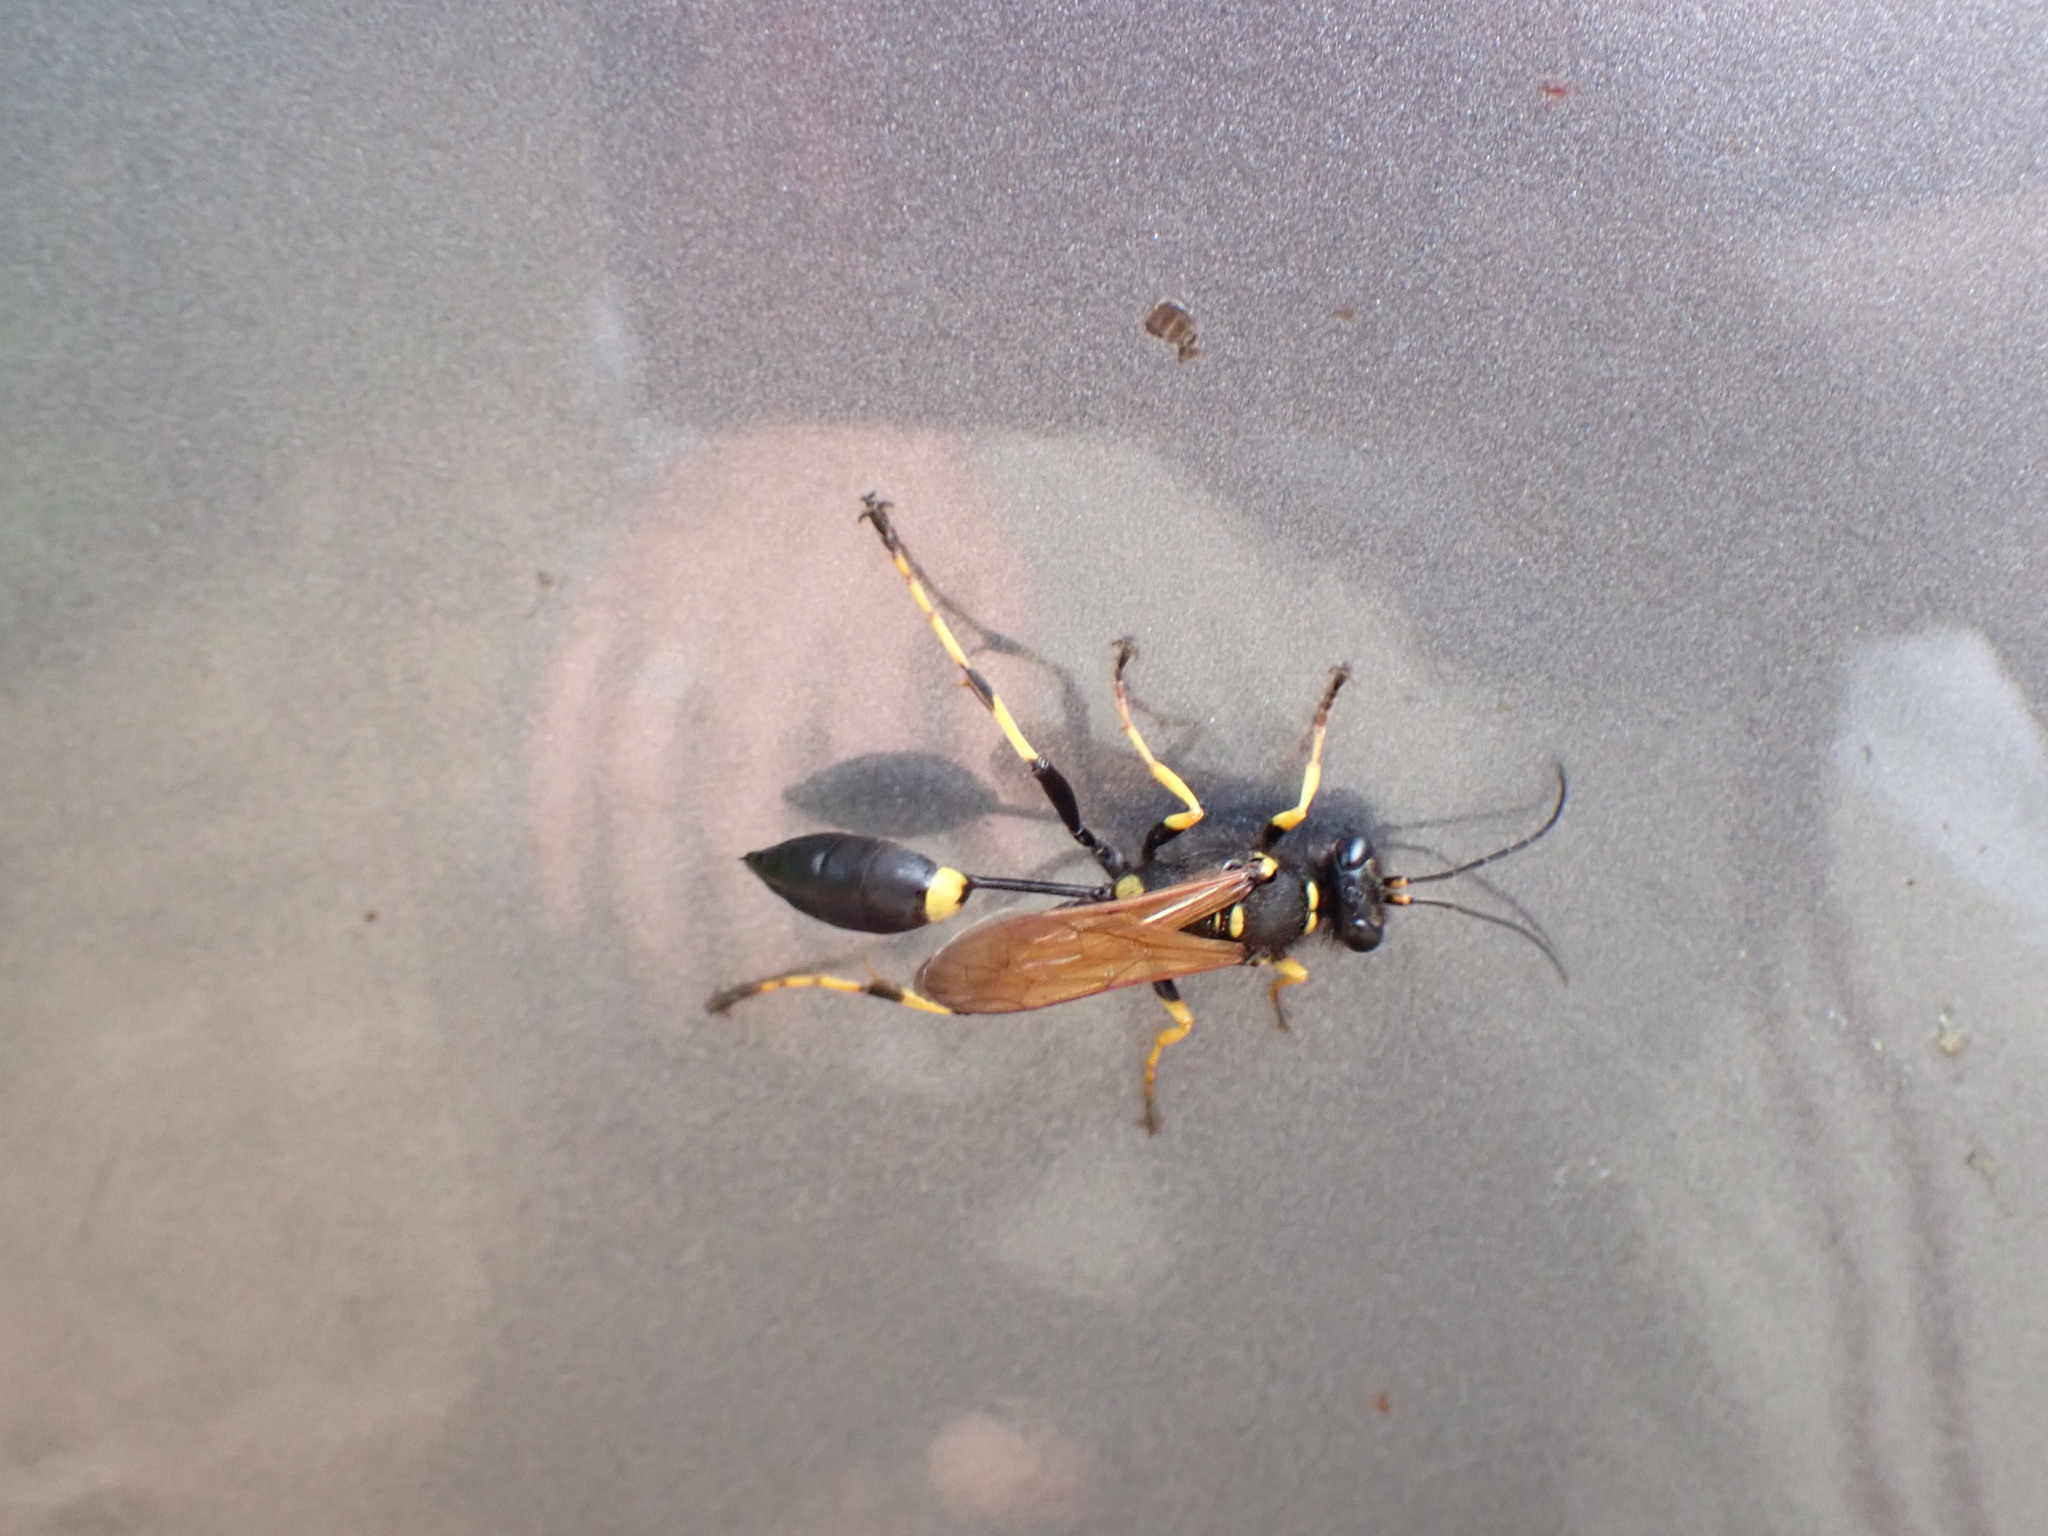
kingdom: Animalia
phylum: Arthropoda
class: Insecta
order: Hymenoptera
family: Sphecidae
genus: Sceliphron
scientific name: Sceliphron caementarium
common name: Mud dauber
